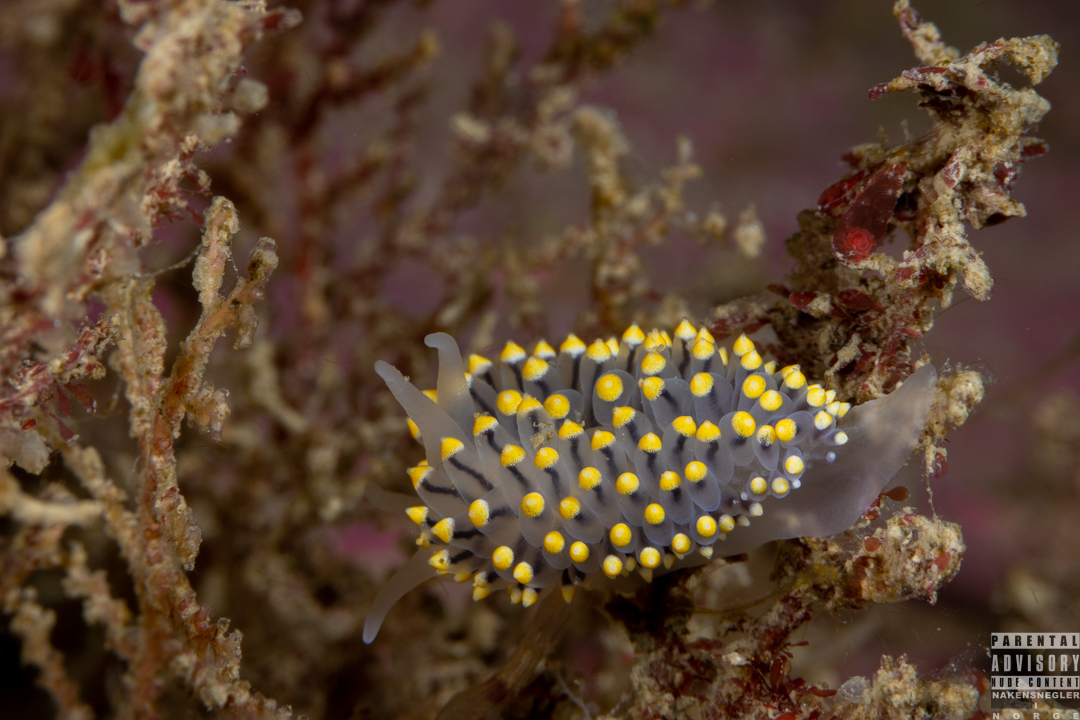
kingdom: Animalia
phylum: Mollusca
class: Gastropoda
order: Nudibranchia
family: Eubranchidae
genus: Eubranchus
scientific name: Eubranchus tricolor
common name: Painted balloon aeolis
